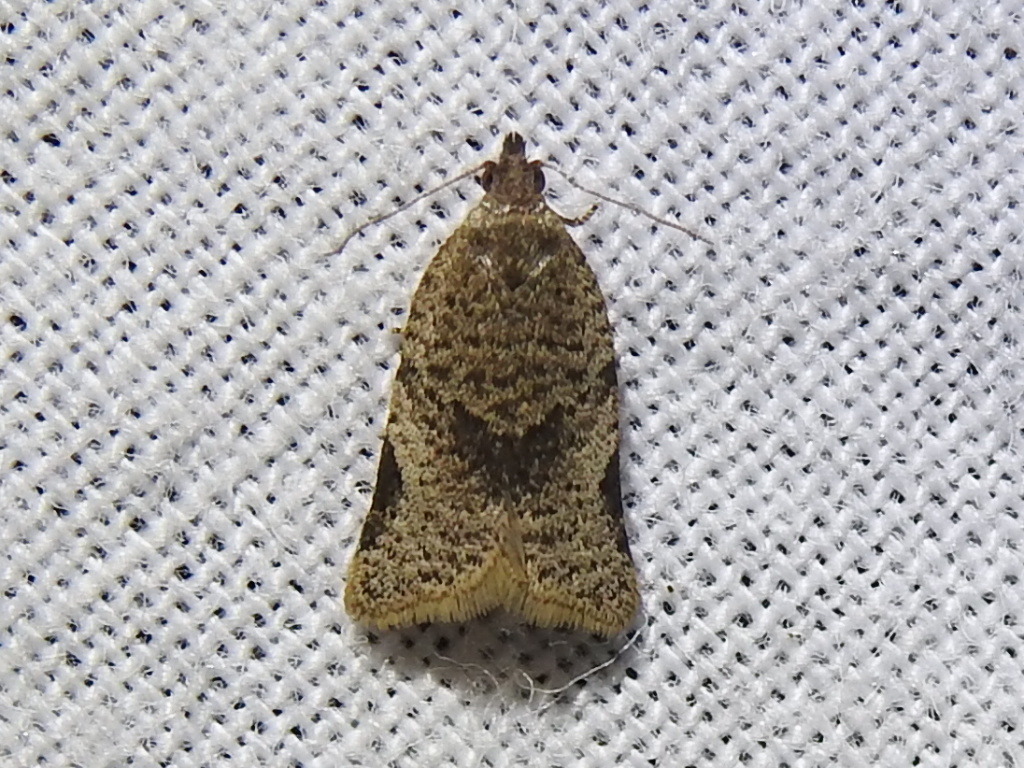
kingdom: Animalia
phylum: Arthropoda
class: Insecta
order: Lepidoptera
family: Tortricidae
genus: Clepsis
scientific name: Clepsis virescana
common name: Greenish apple moth
